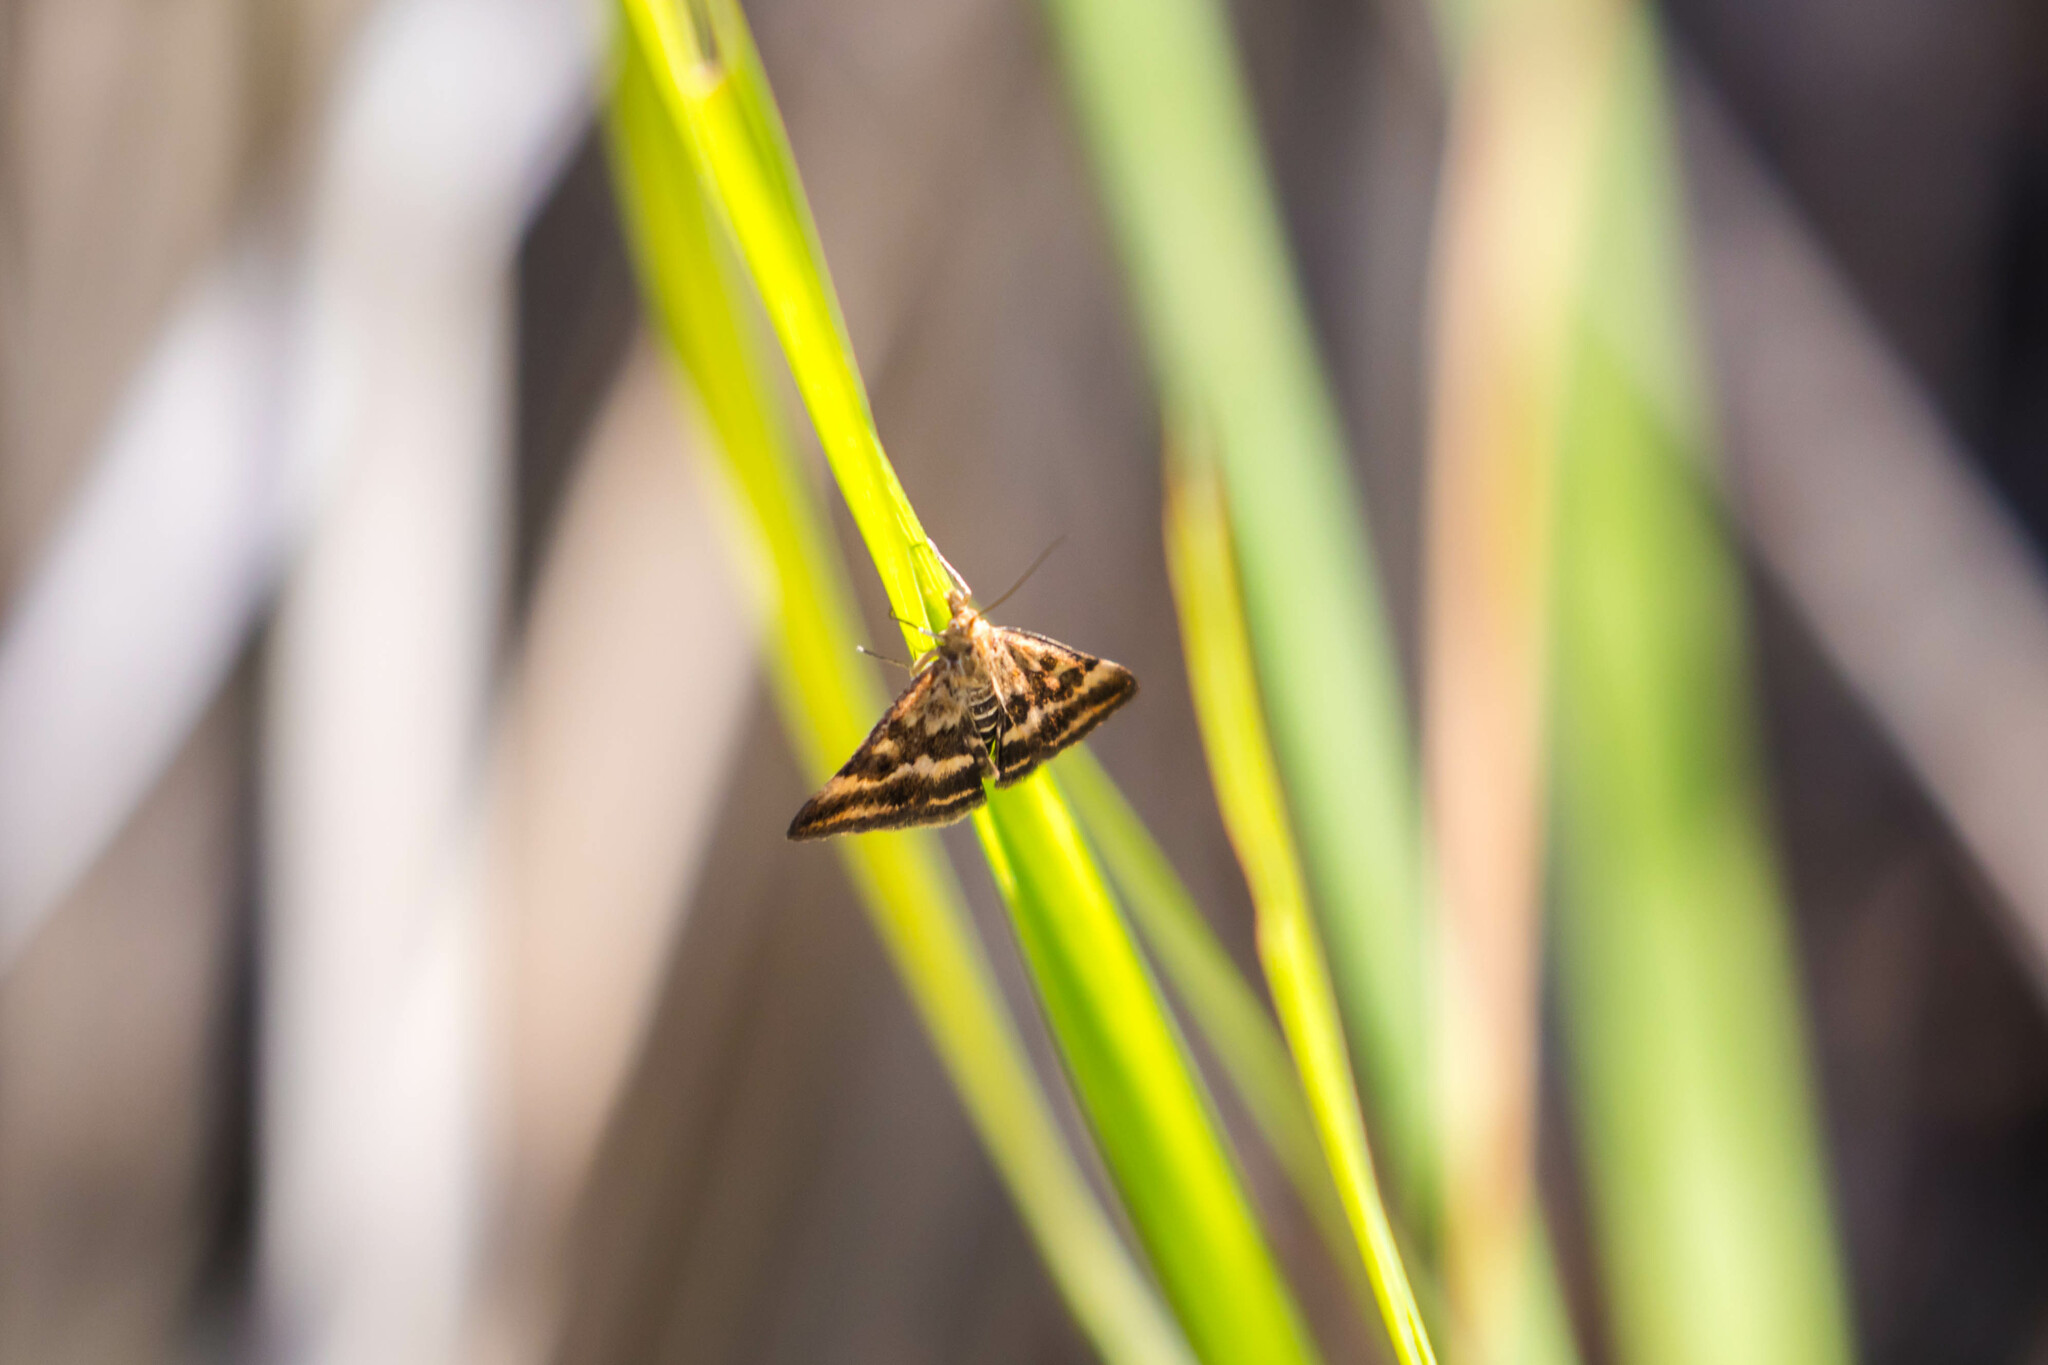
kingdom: Animalia
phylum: Arthropoda
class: Insecta
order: Lepidoptera
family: Crambidae
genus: Pyrausta
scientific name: Pyrausta despicata
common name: Straw-barred pearl
